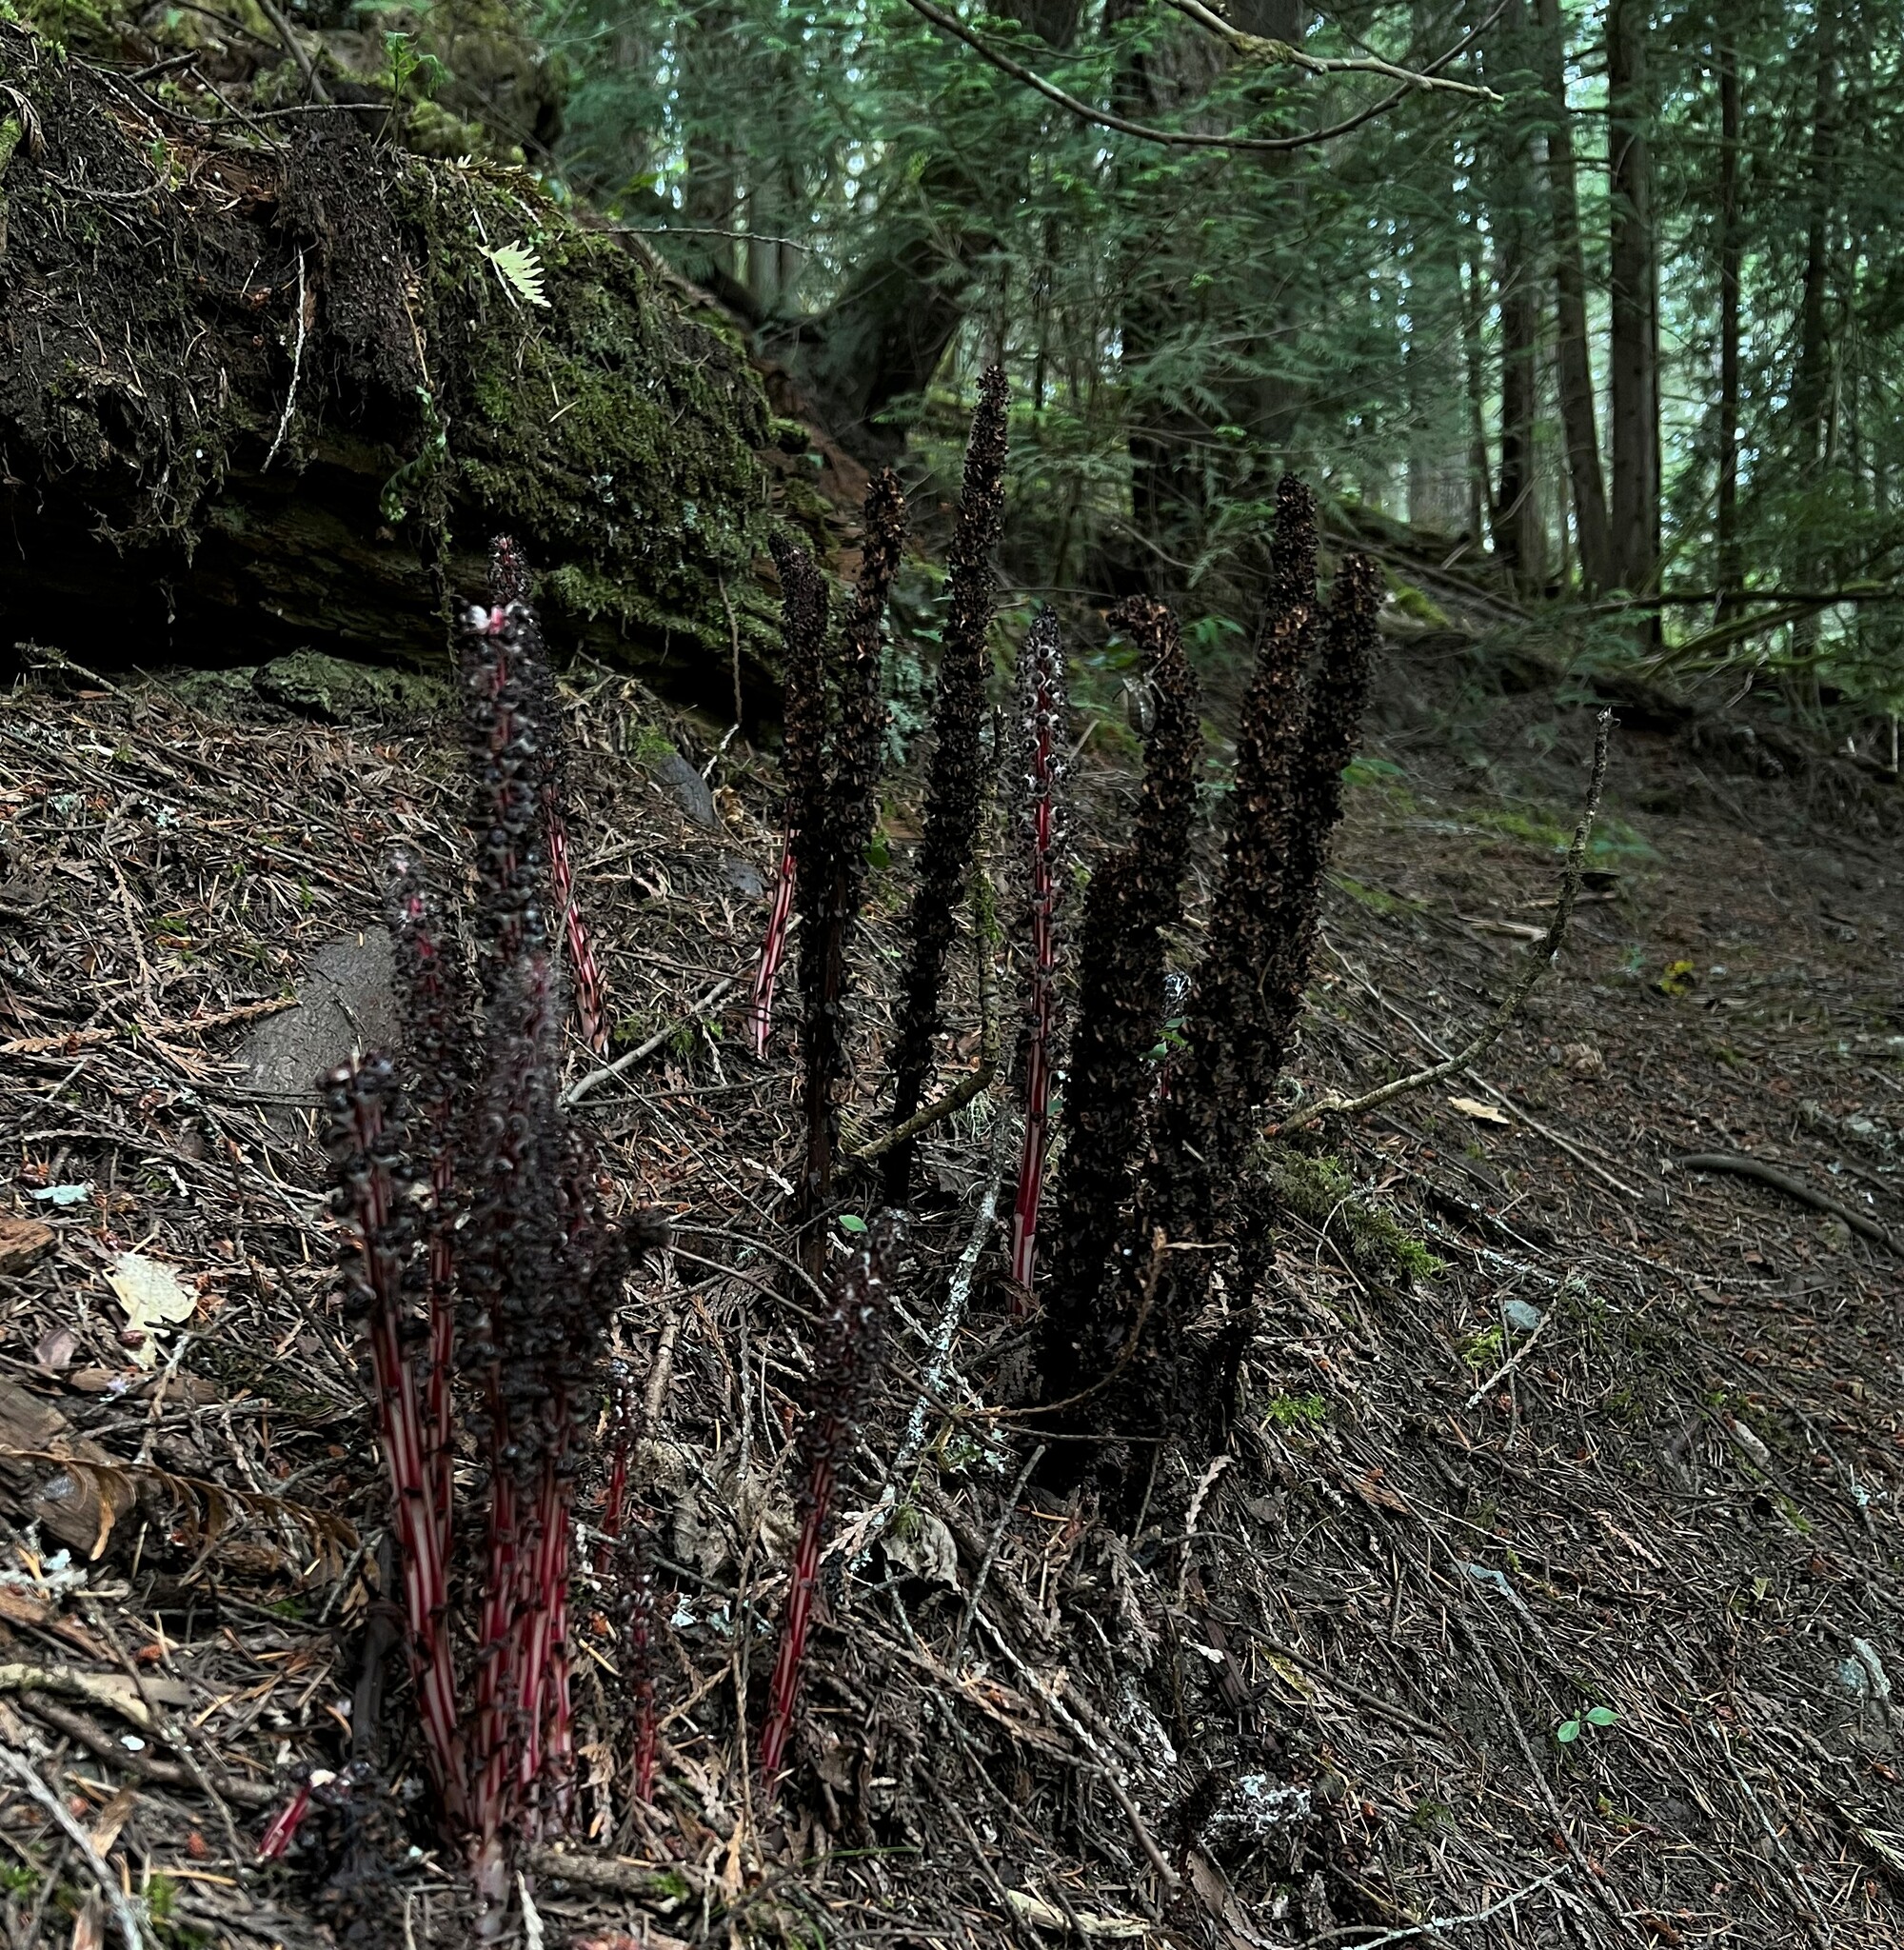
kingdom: Plantae
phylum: Tracheophyta
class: Magnoliopsida
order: Ericales
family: Ericaceae
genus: Allotropa
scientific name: Allotropa virgata
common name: Candy-striped allotropa
